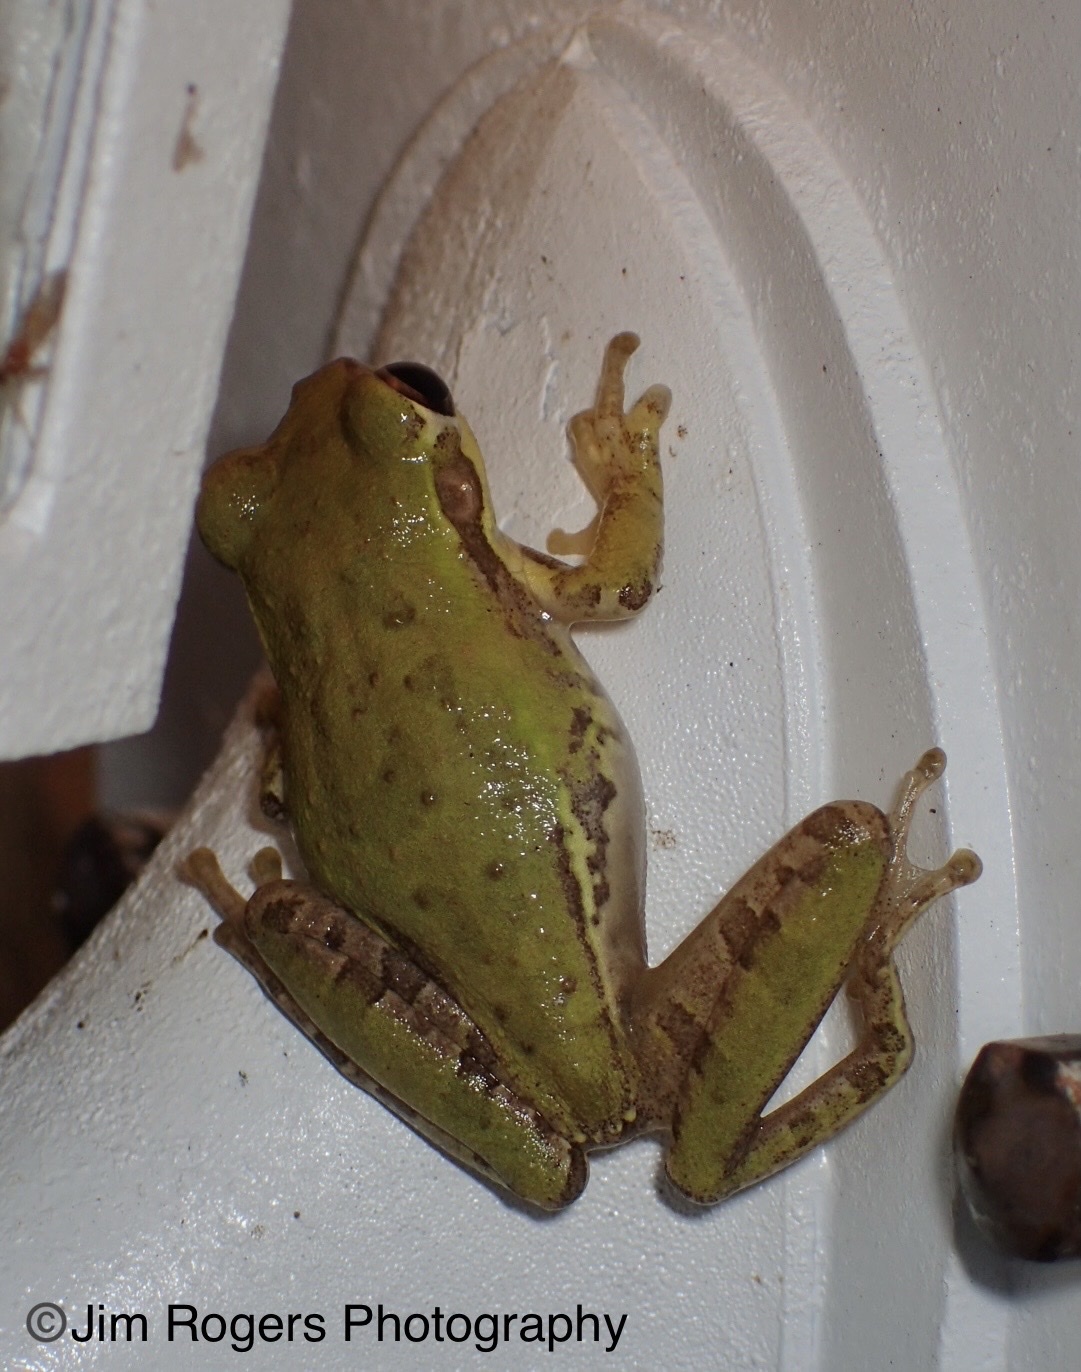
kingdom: Animalia
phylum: Chordata
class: Amphibia
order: Anura
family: Hylidae
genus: Osteopilus
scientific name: Osteopilus septentrionalis
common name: Cuban treefrog
